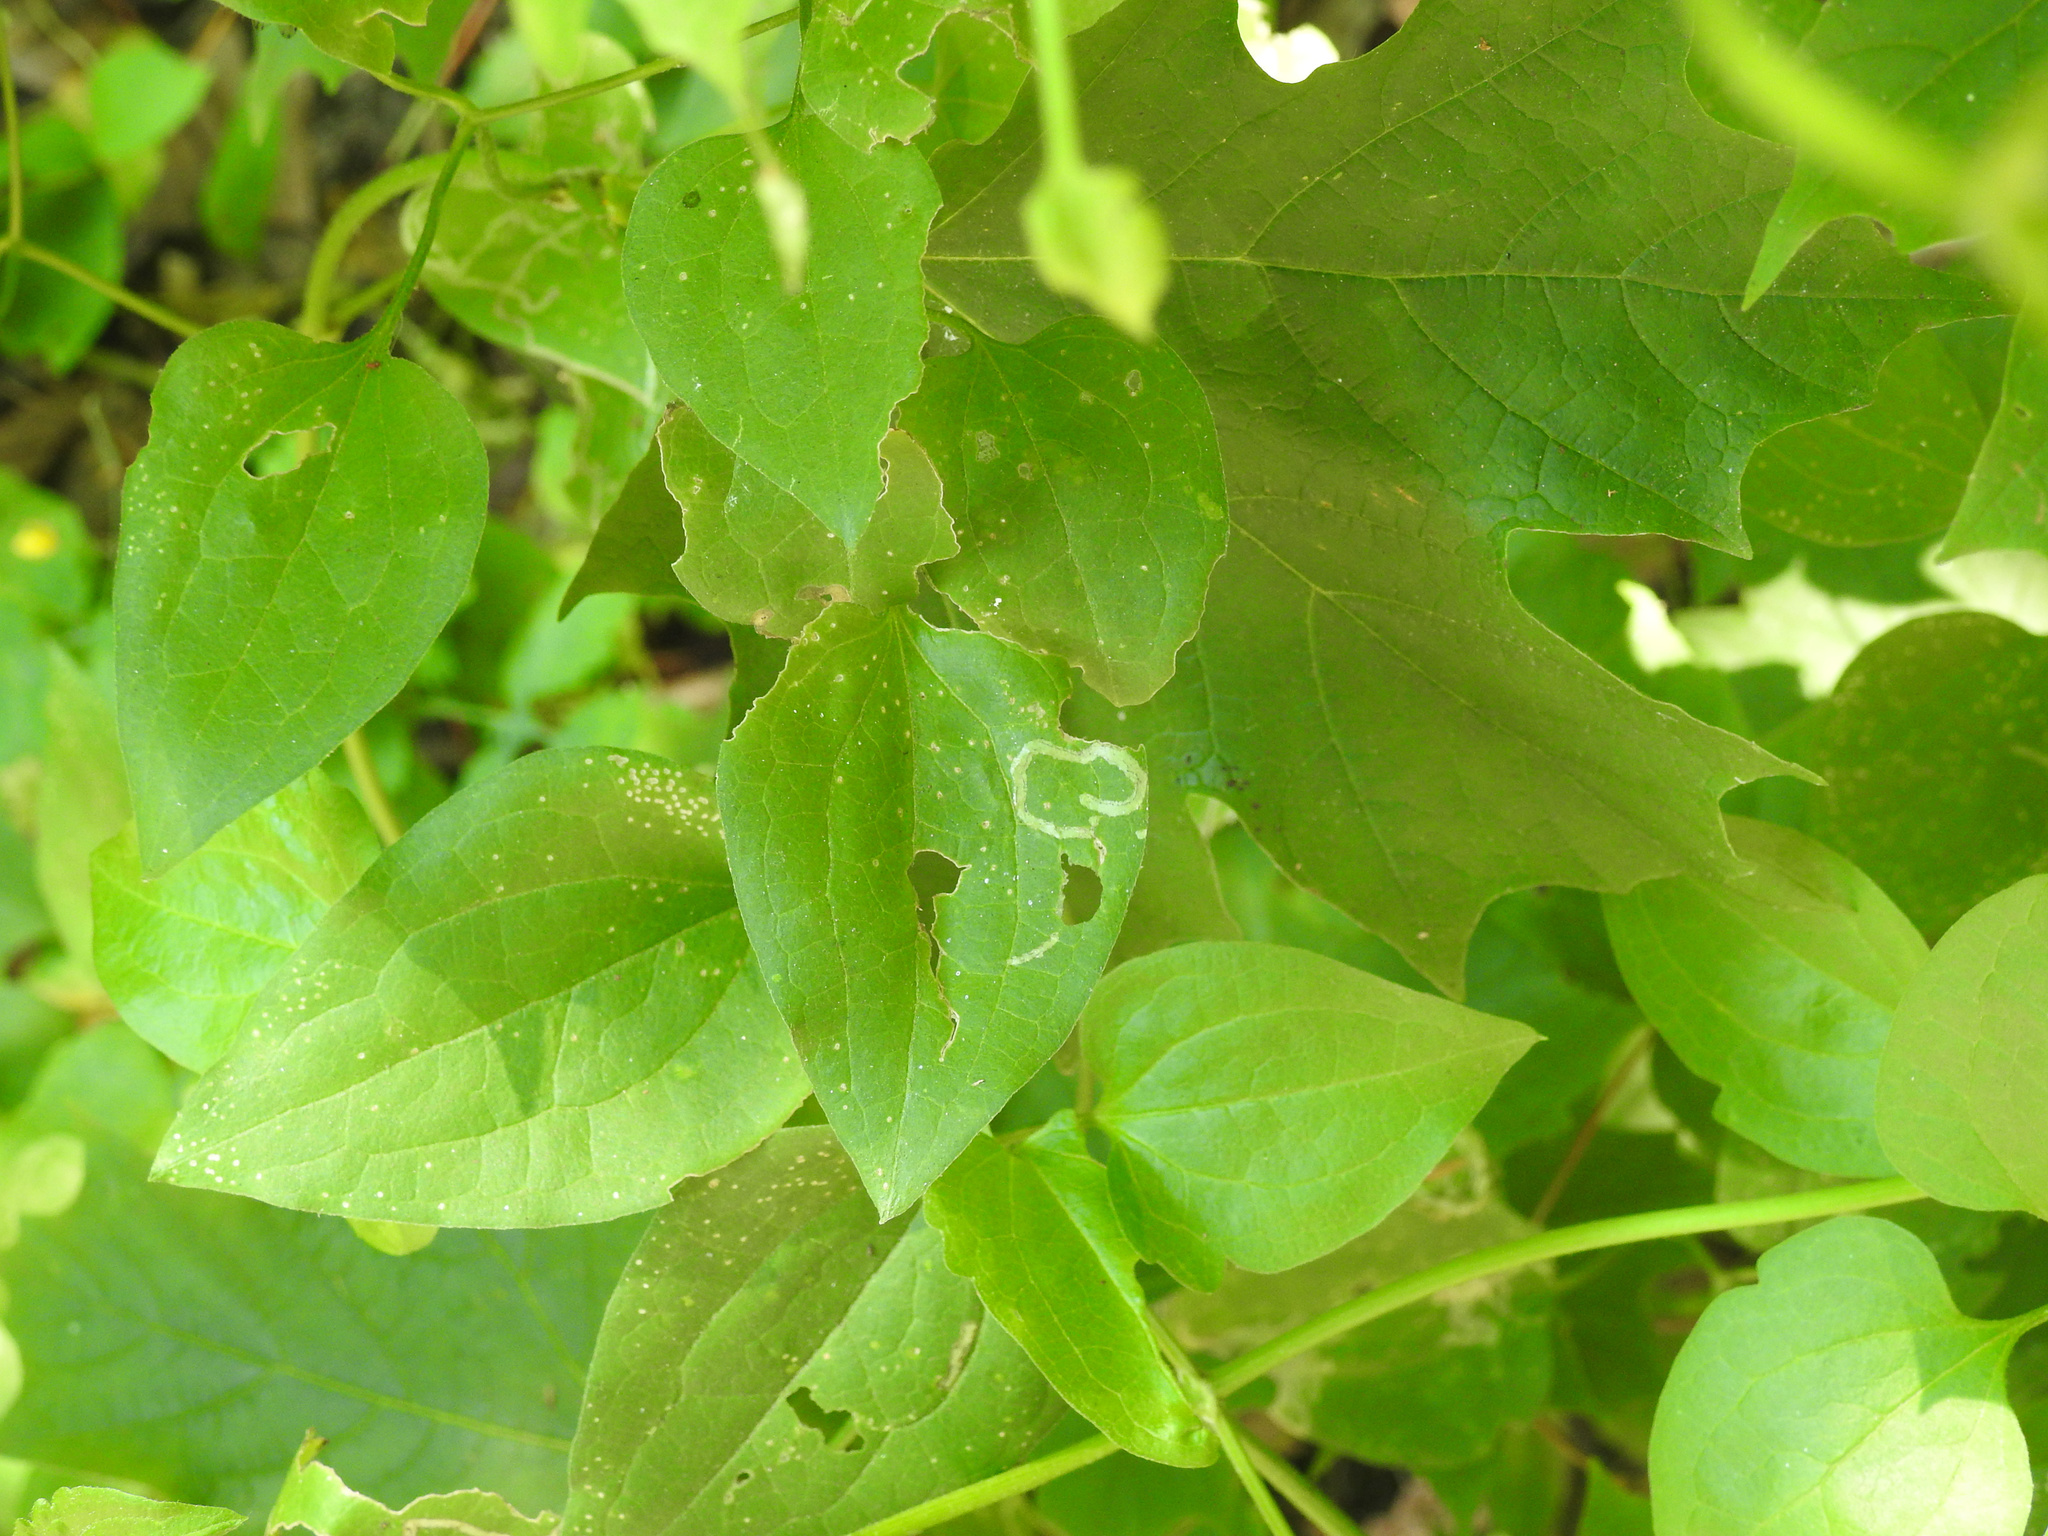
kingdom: Plantae
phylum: Tracheophyta
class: Magnoliopsida
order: Ranunculales
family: Ranunculaceae
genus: Clematis
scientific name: Clematis terniflora
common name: Sweet autumn clematis
